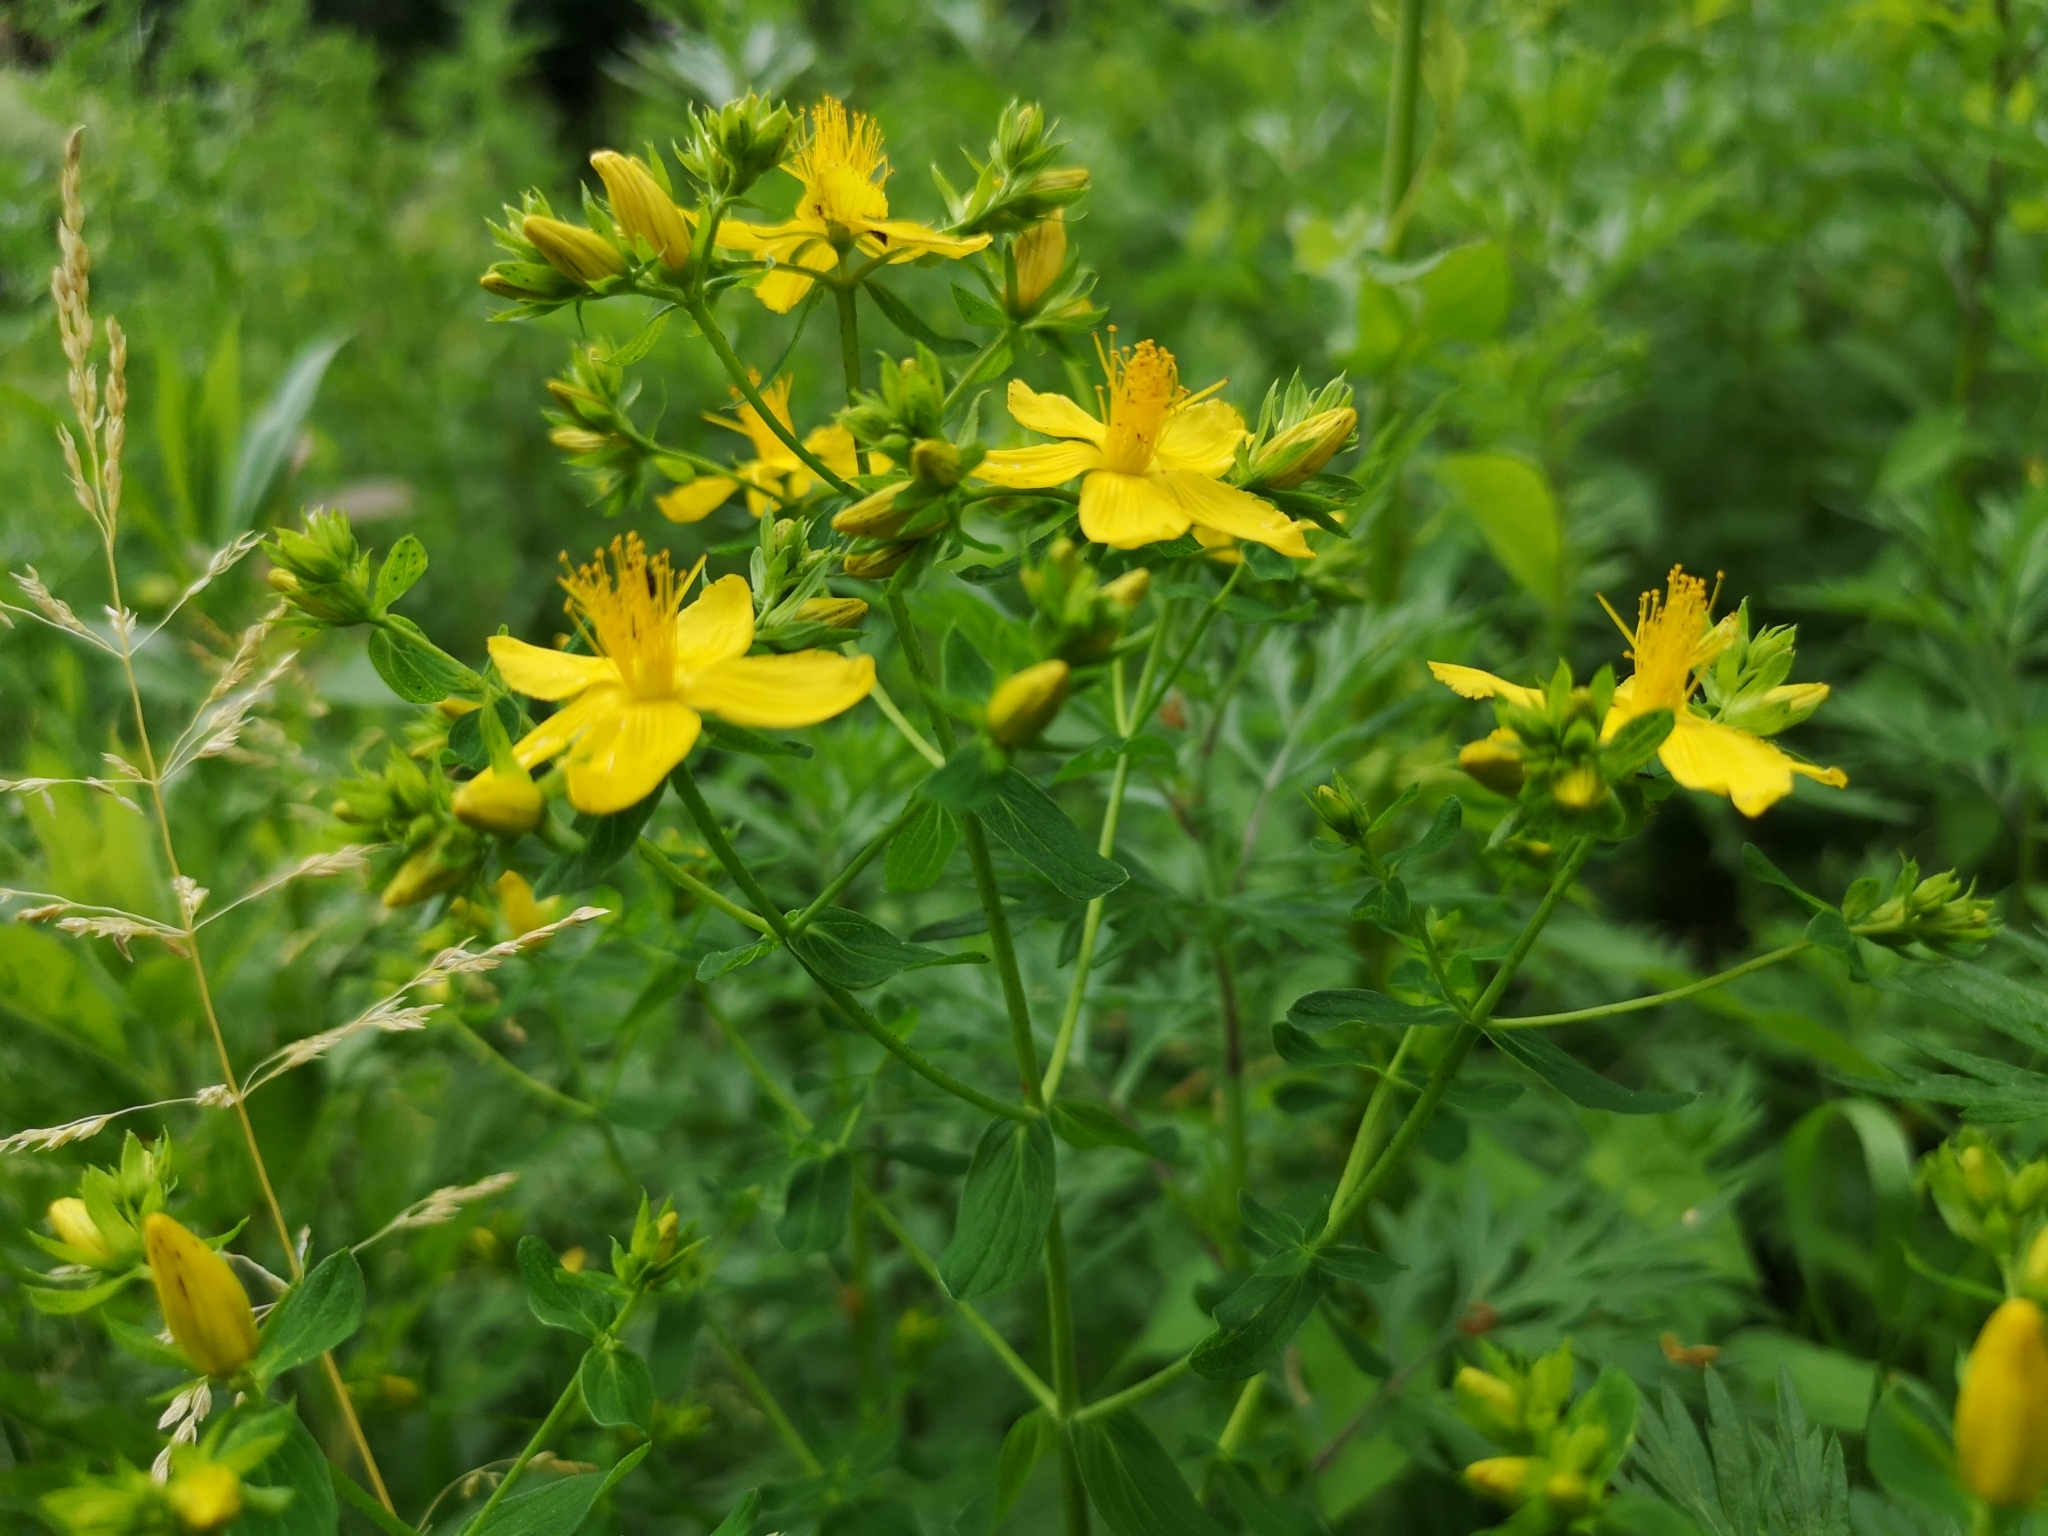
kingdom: Plantae
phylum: Tracheophyta
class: Magnoliopsida
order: Malpighiales
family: Hypericaceae
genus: Hypericum
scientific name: Hypericum perforatum
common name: Common st. johnswort
